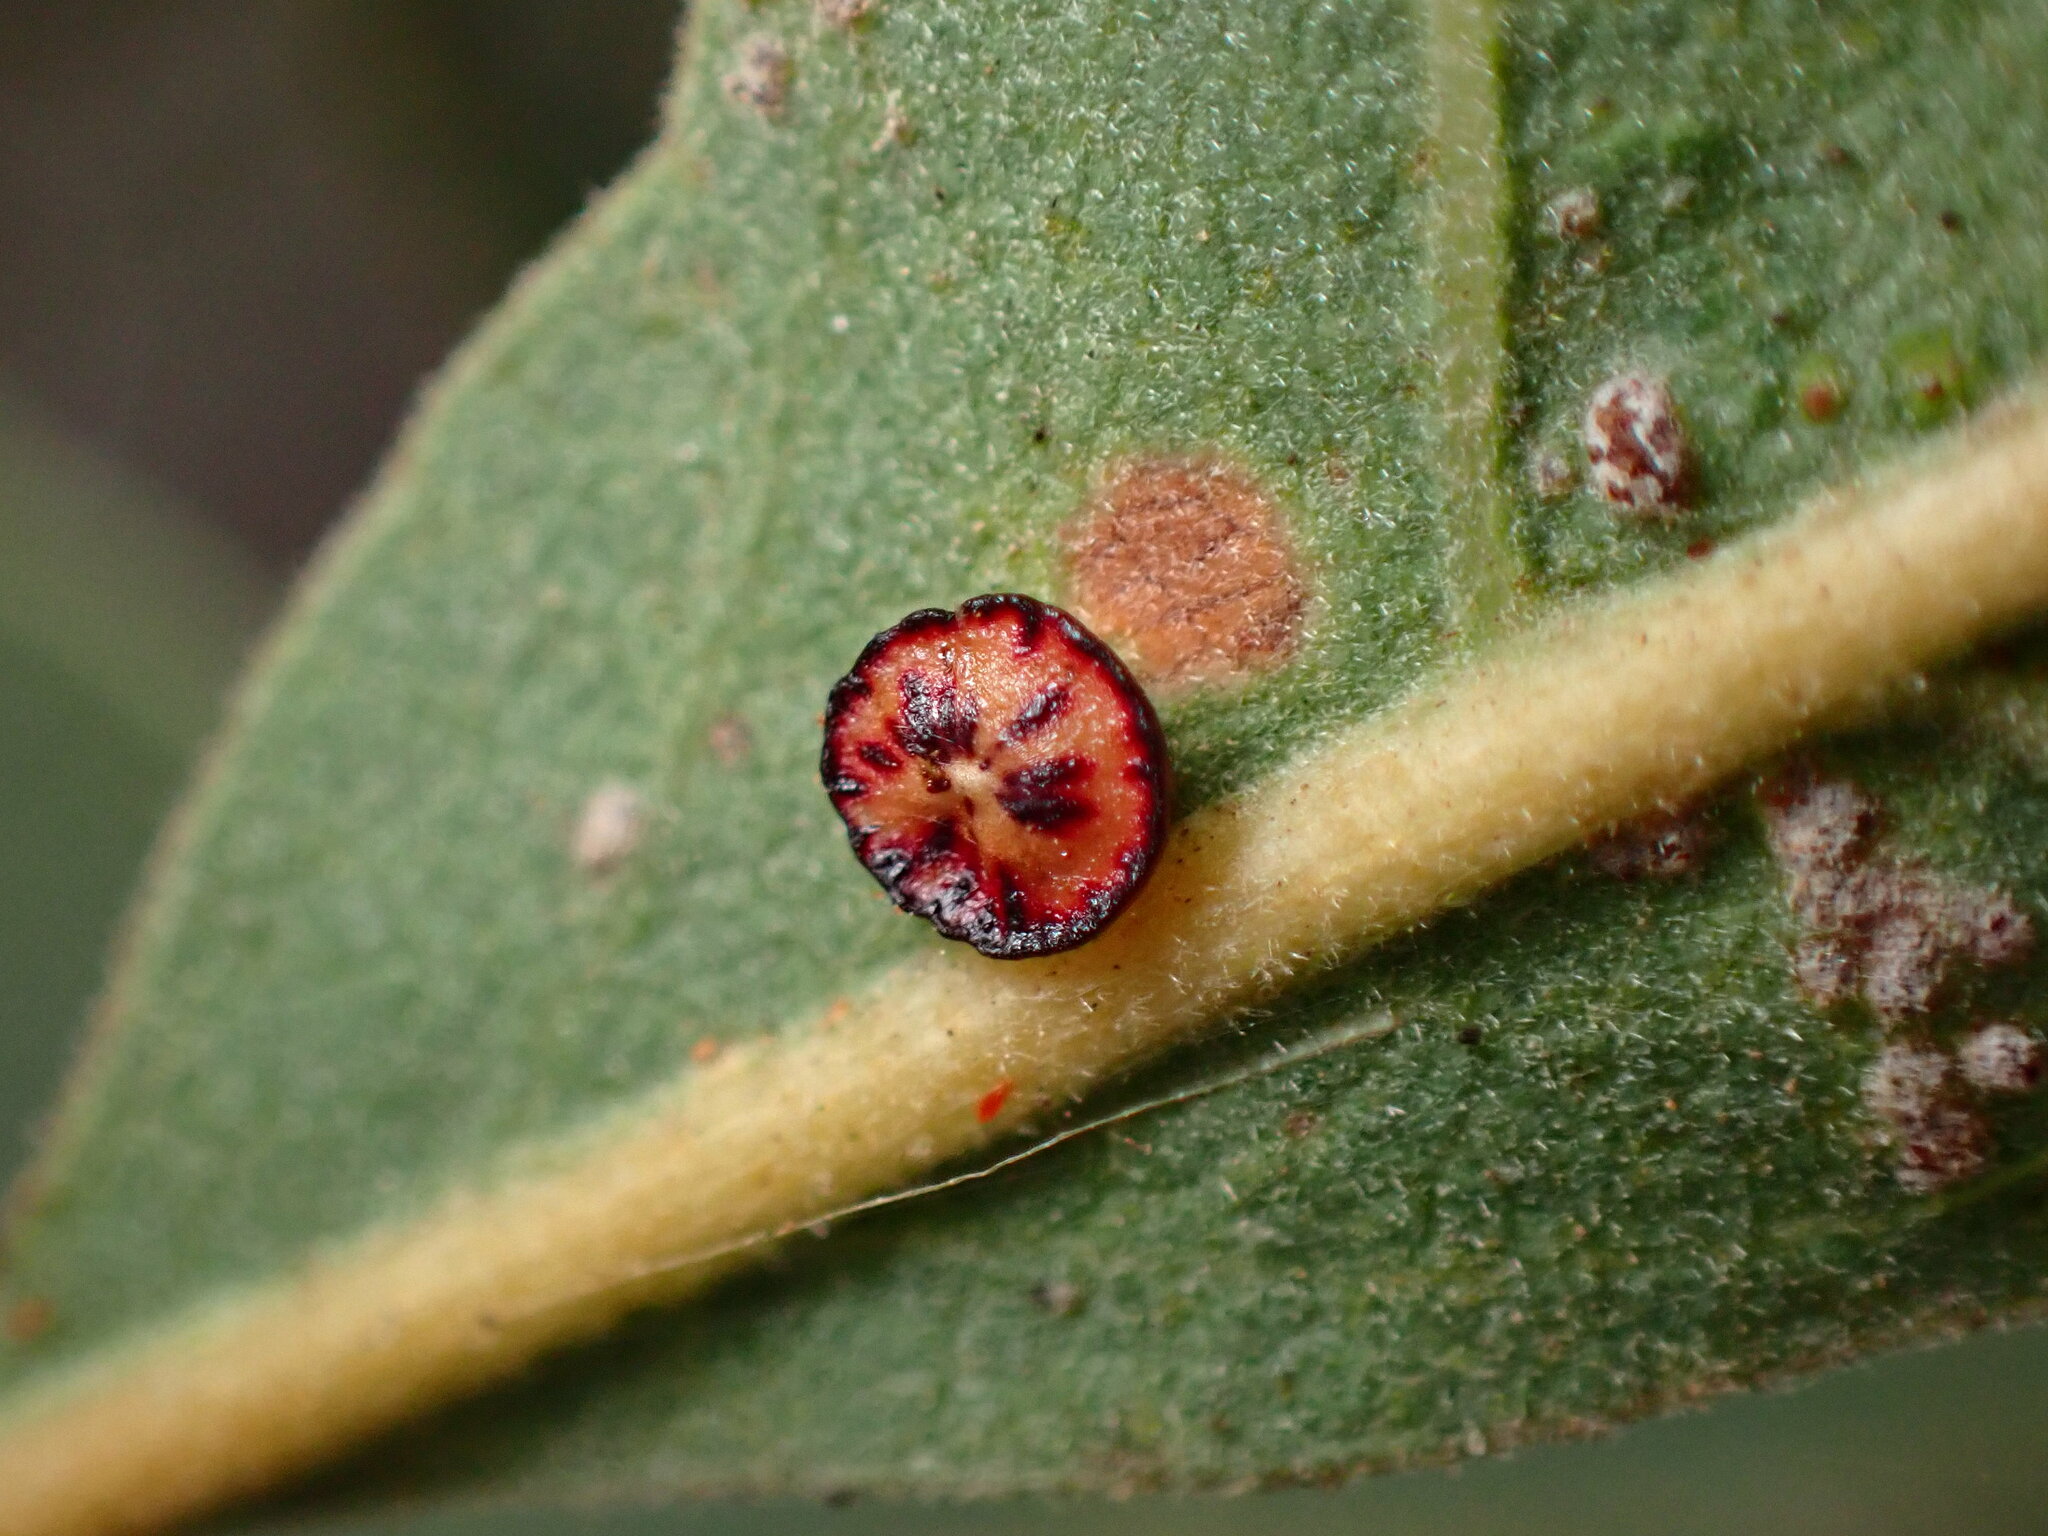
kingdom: Animalia
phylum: Arthropoda
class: Insecta
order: Hymenoptera
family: Cynipidae
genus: Andricus
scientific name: Andricus
